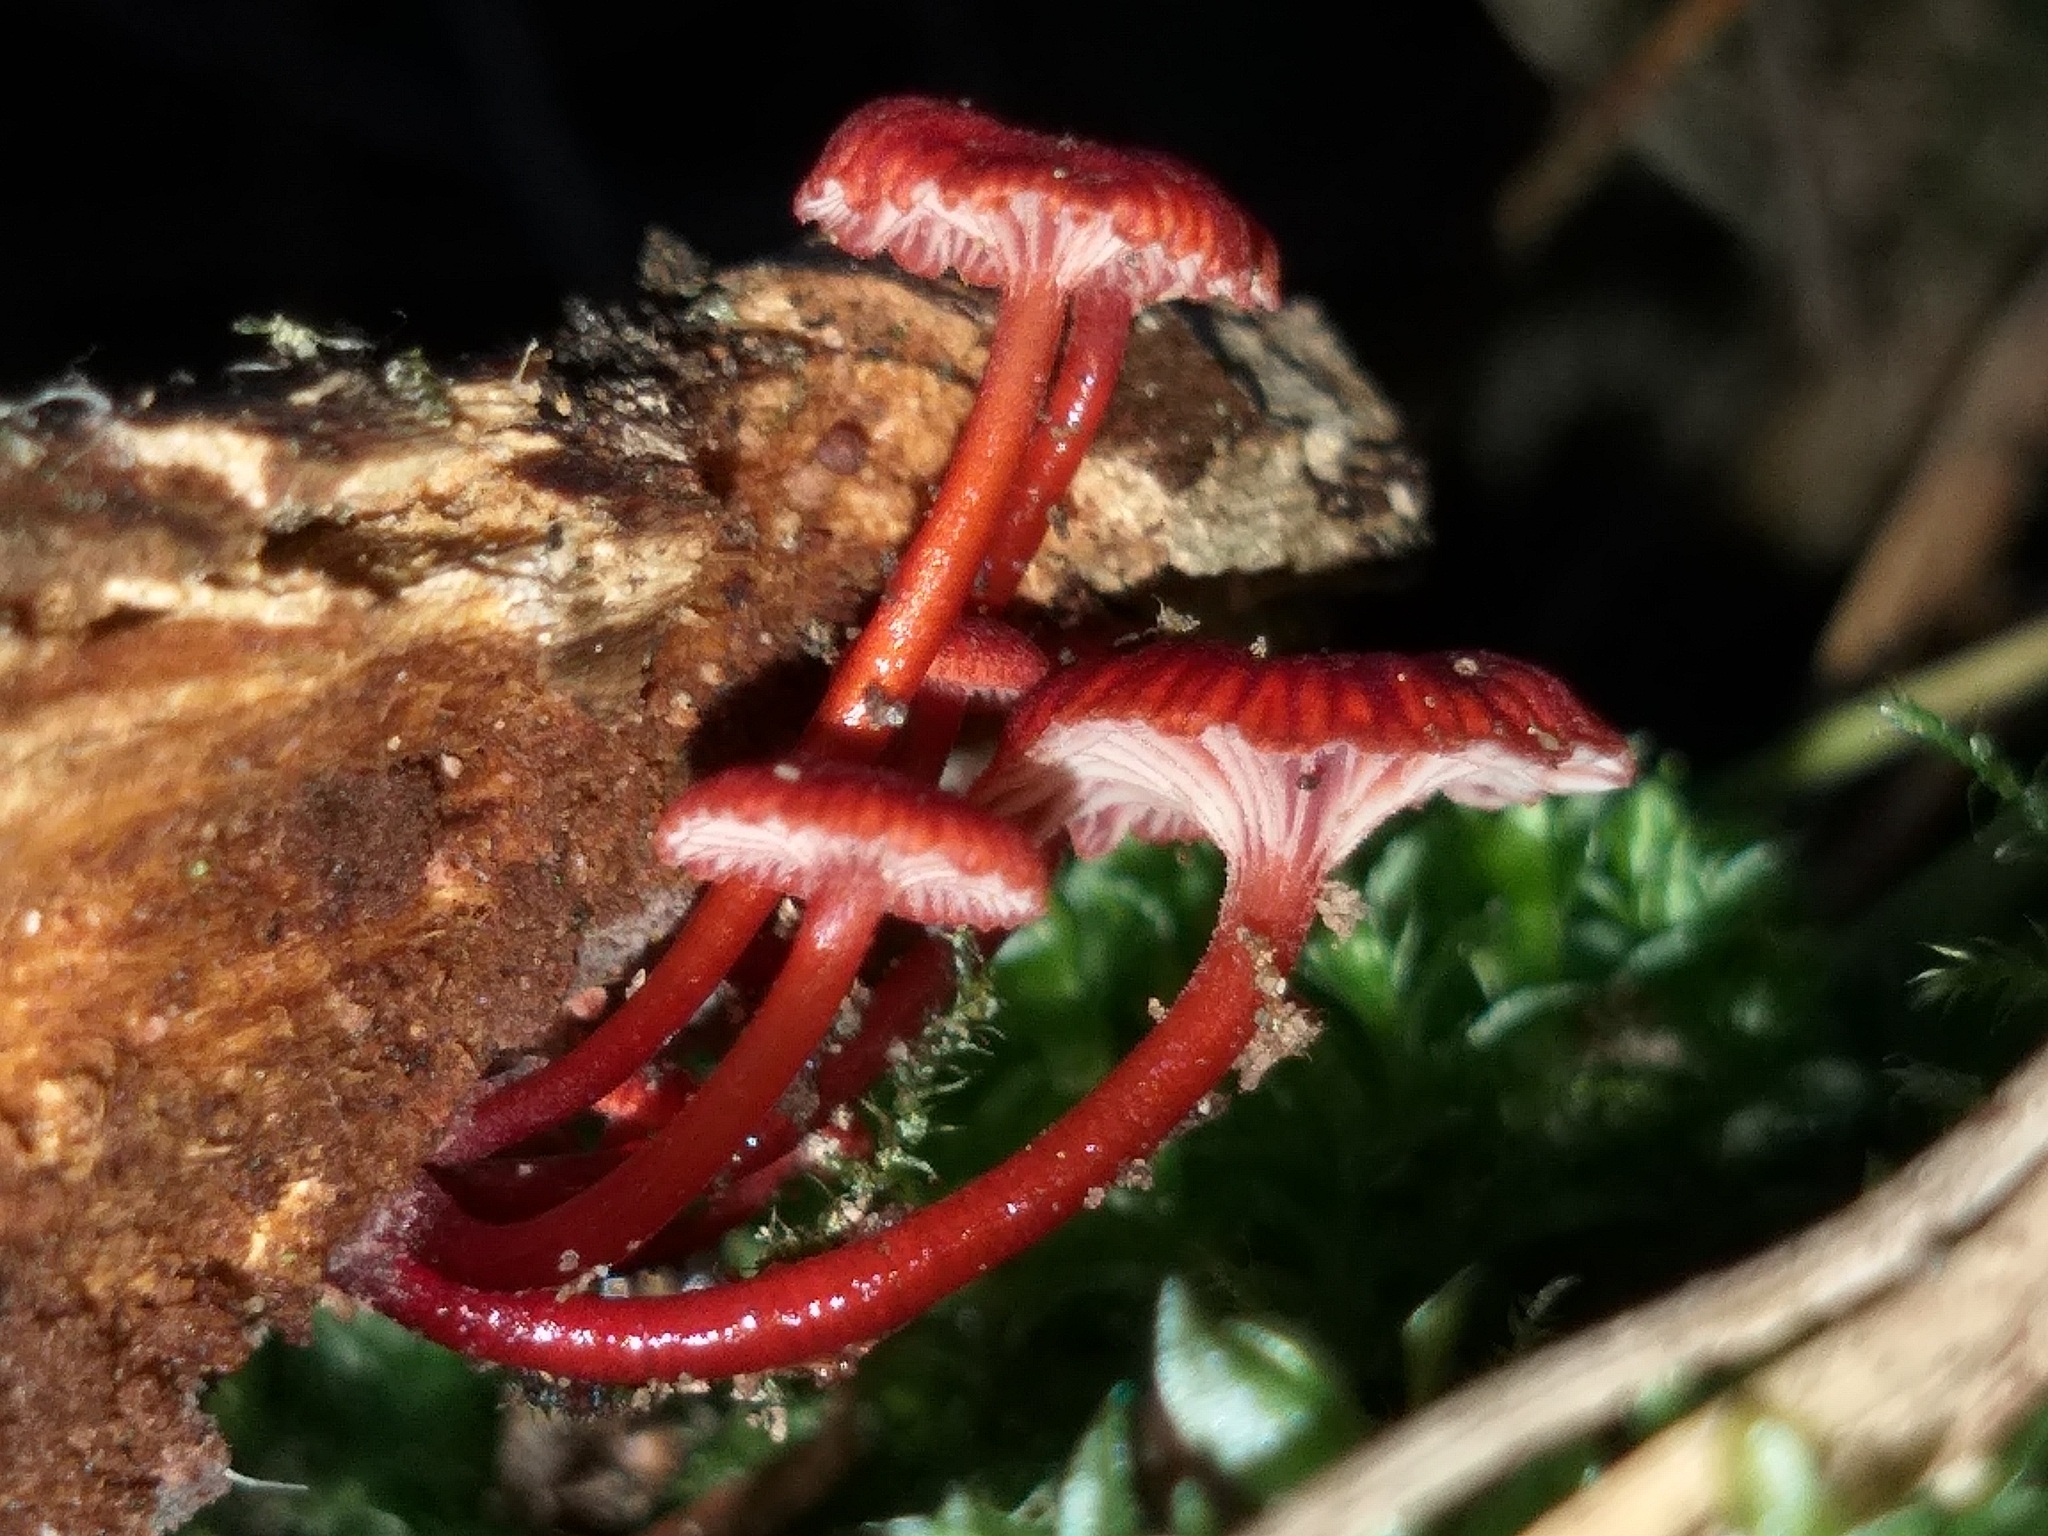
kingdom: Fungi
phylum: Basidiomycota
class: Agaricomycetes
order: Agaricales
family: Mycenaceae
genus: Cruentomycena
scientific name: Cruentomycena viscidocruenta
